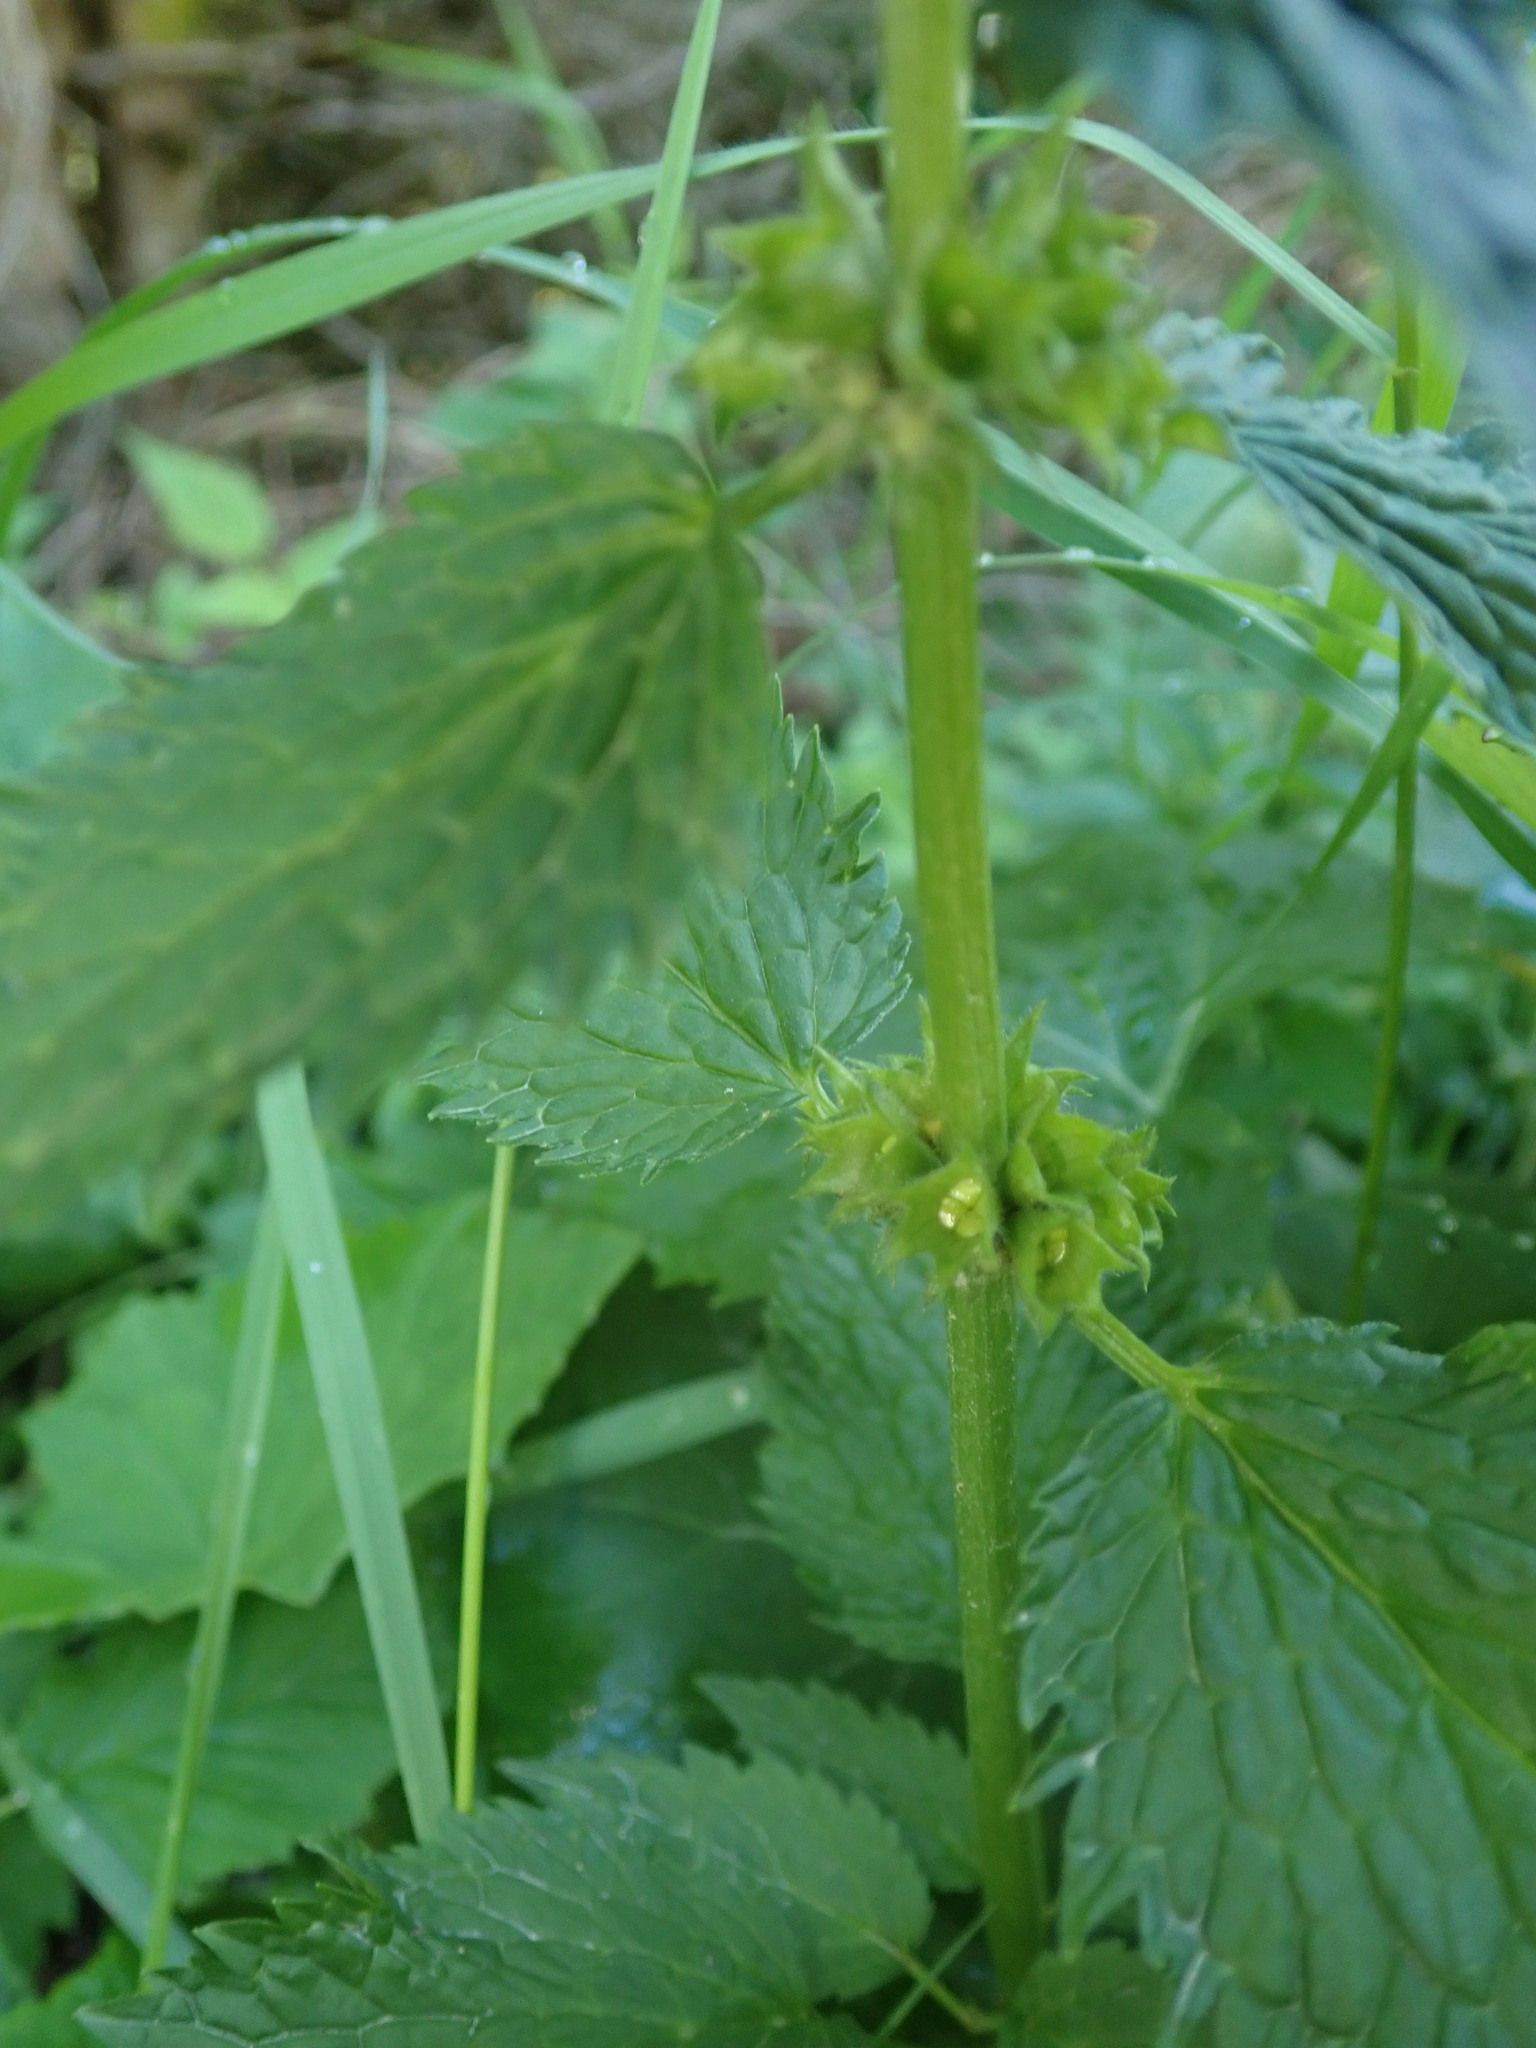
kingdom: Plantae
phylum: Tracheophyta
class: Magnoliopsida
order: Lamiales
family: Lamiaceae
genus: Lamium
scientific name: Lamium galeobdolon
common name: Yellow archangel
